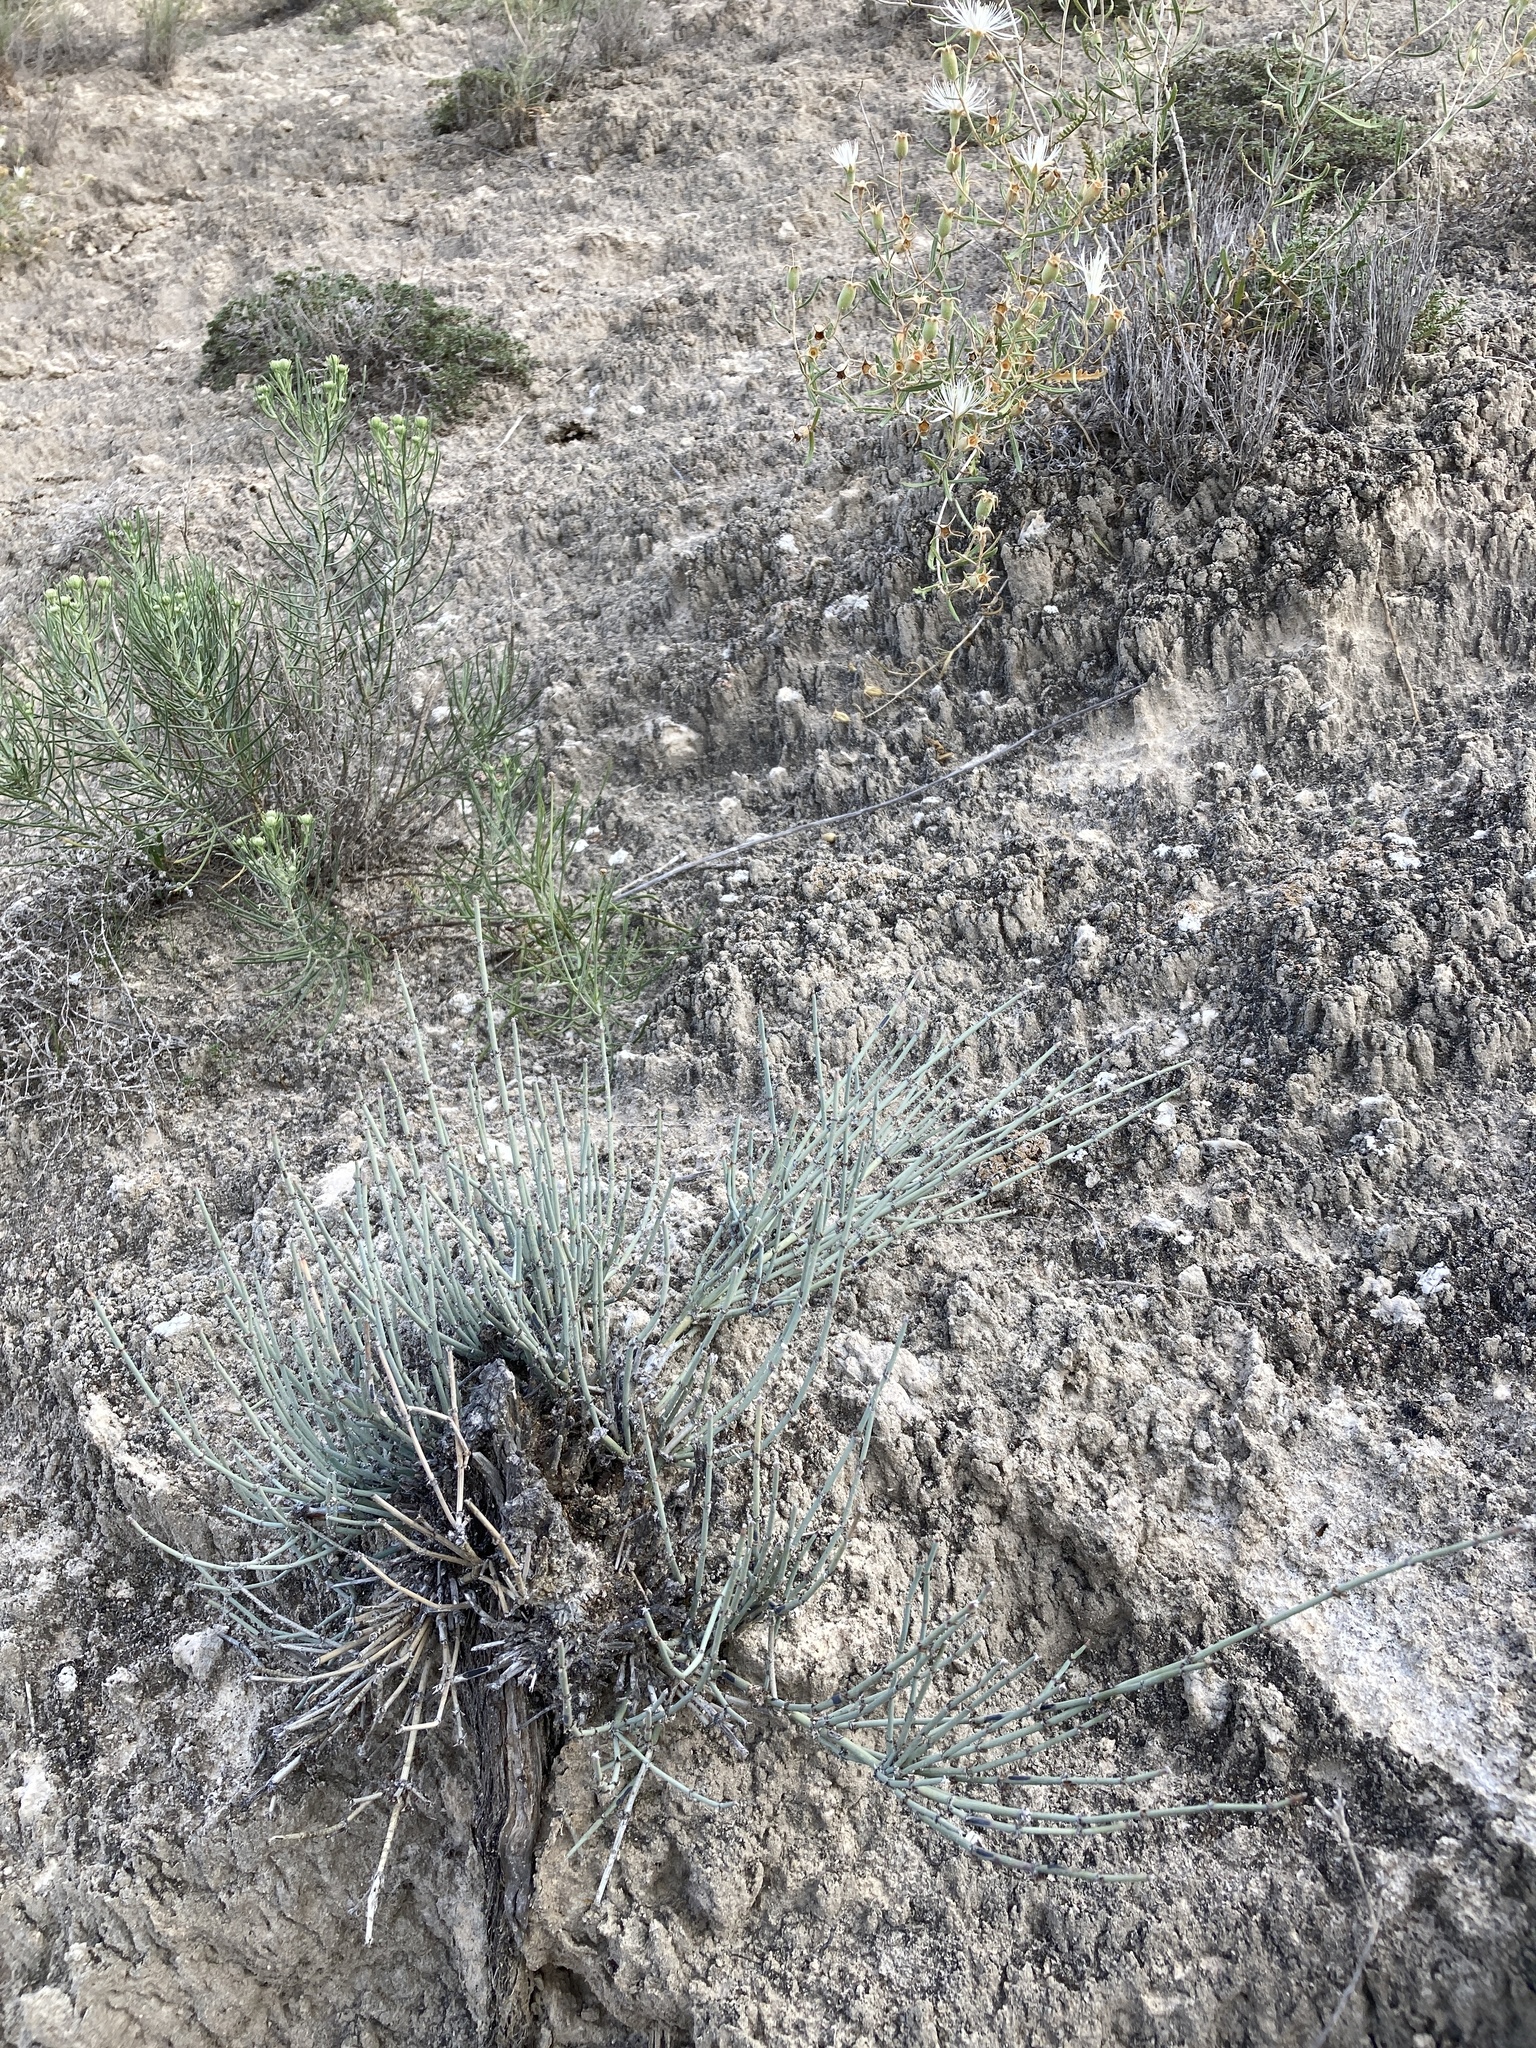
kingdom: Plantae
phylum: Tracheophyta
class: Gnetopsida
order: Ephedrales
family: Ephedraceae
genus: Ephedra
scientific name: Ephedra torreyana
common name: Torrey ephedra
